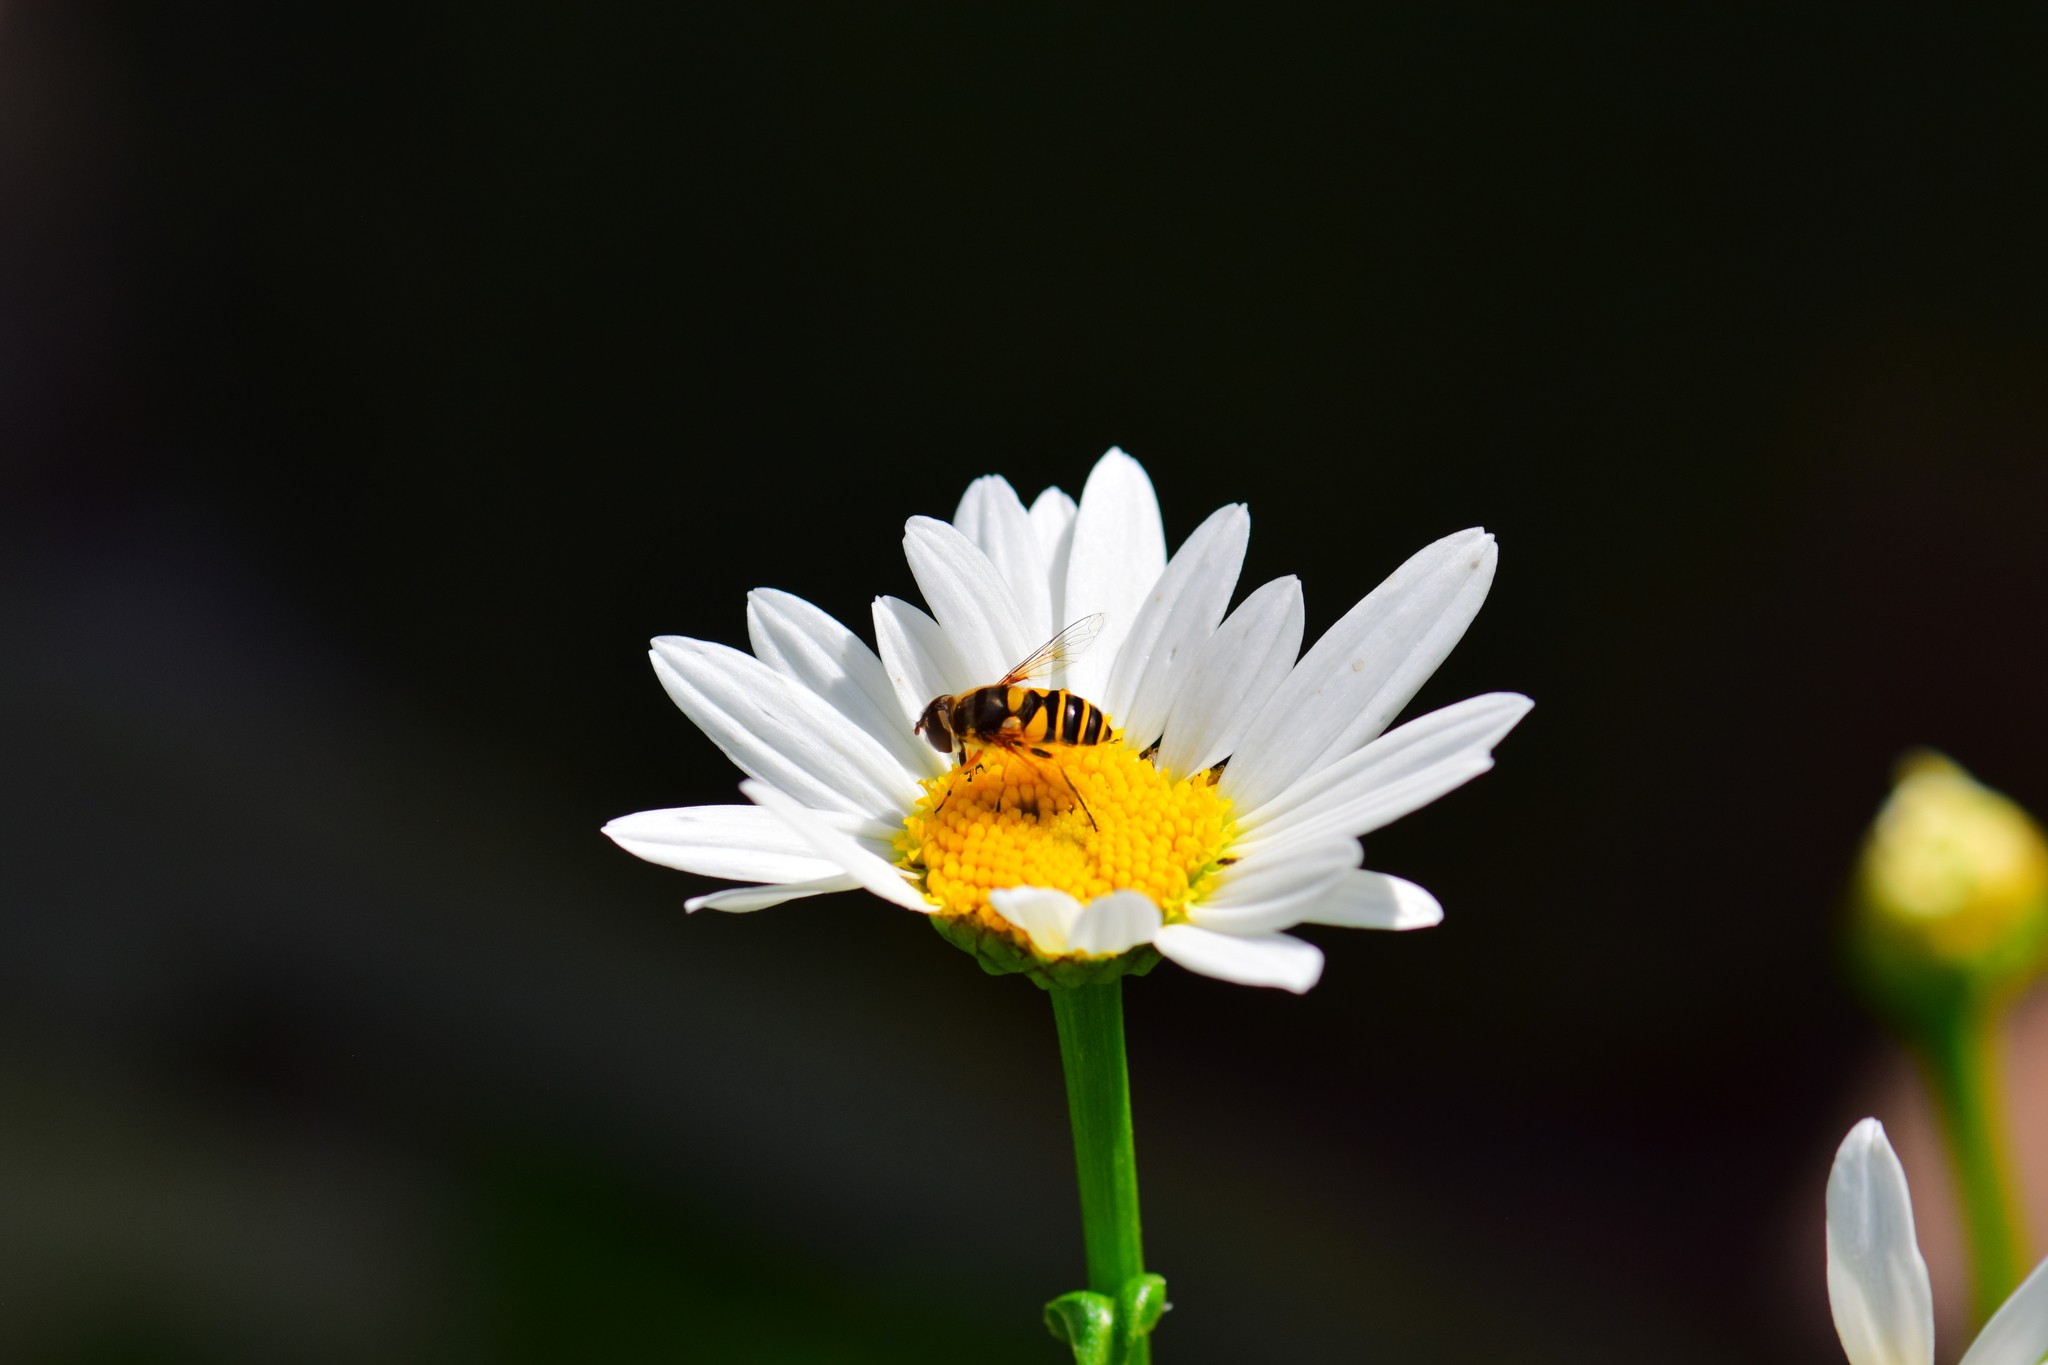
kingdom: Animalia
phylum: Arthropoda
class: Insecta
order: Diptera
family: Syrphidae
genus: Eristalis
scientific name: Eristalis transversa
